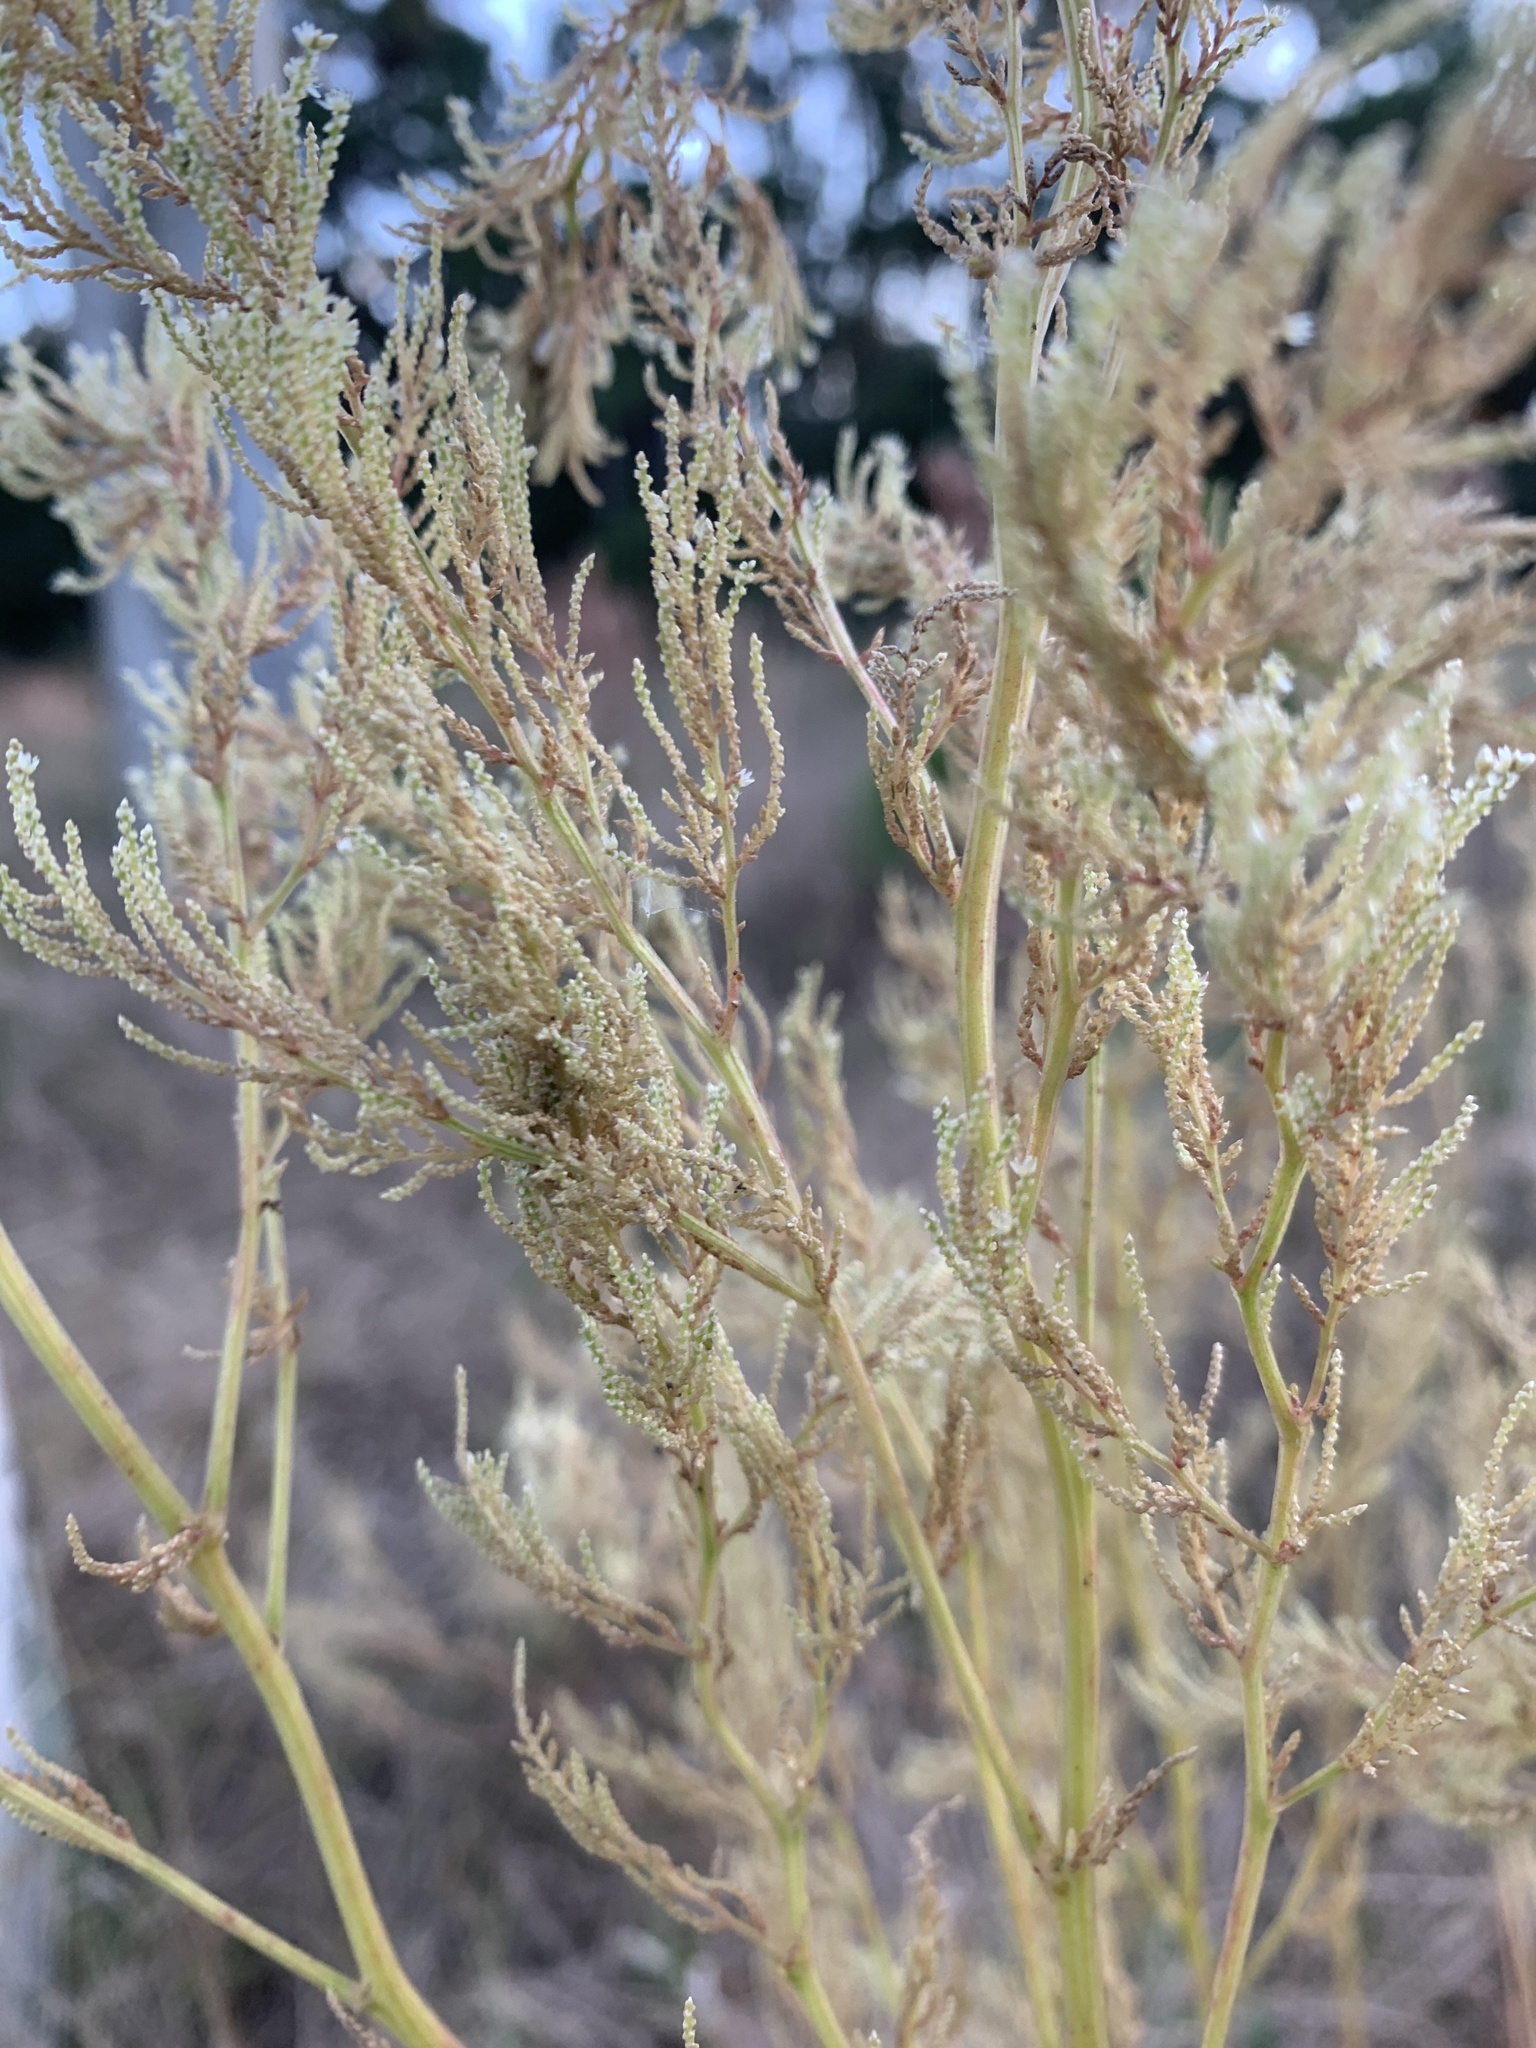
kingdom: Plantae
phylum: Tracheophyta
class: Magnoliopsida
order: Caryophyllales
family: Amaranthaceae
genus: Iresine
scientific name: Iresine diffusa
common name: Juba's-bush
